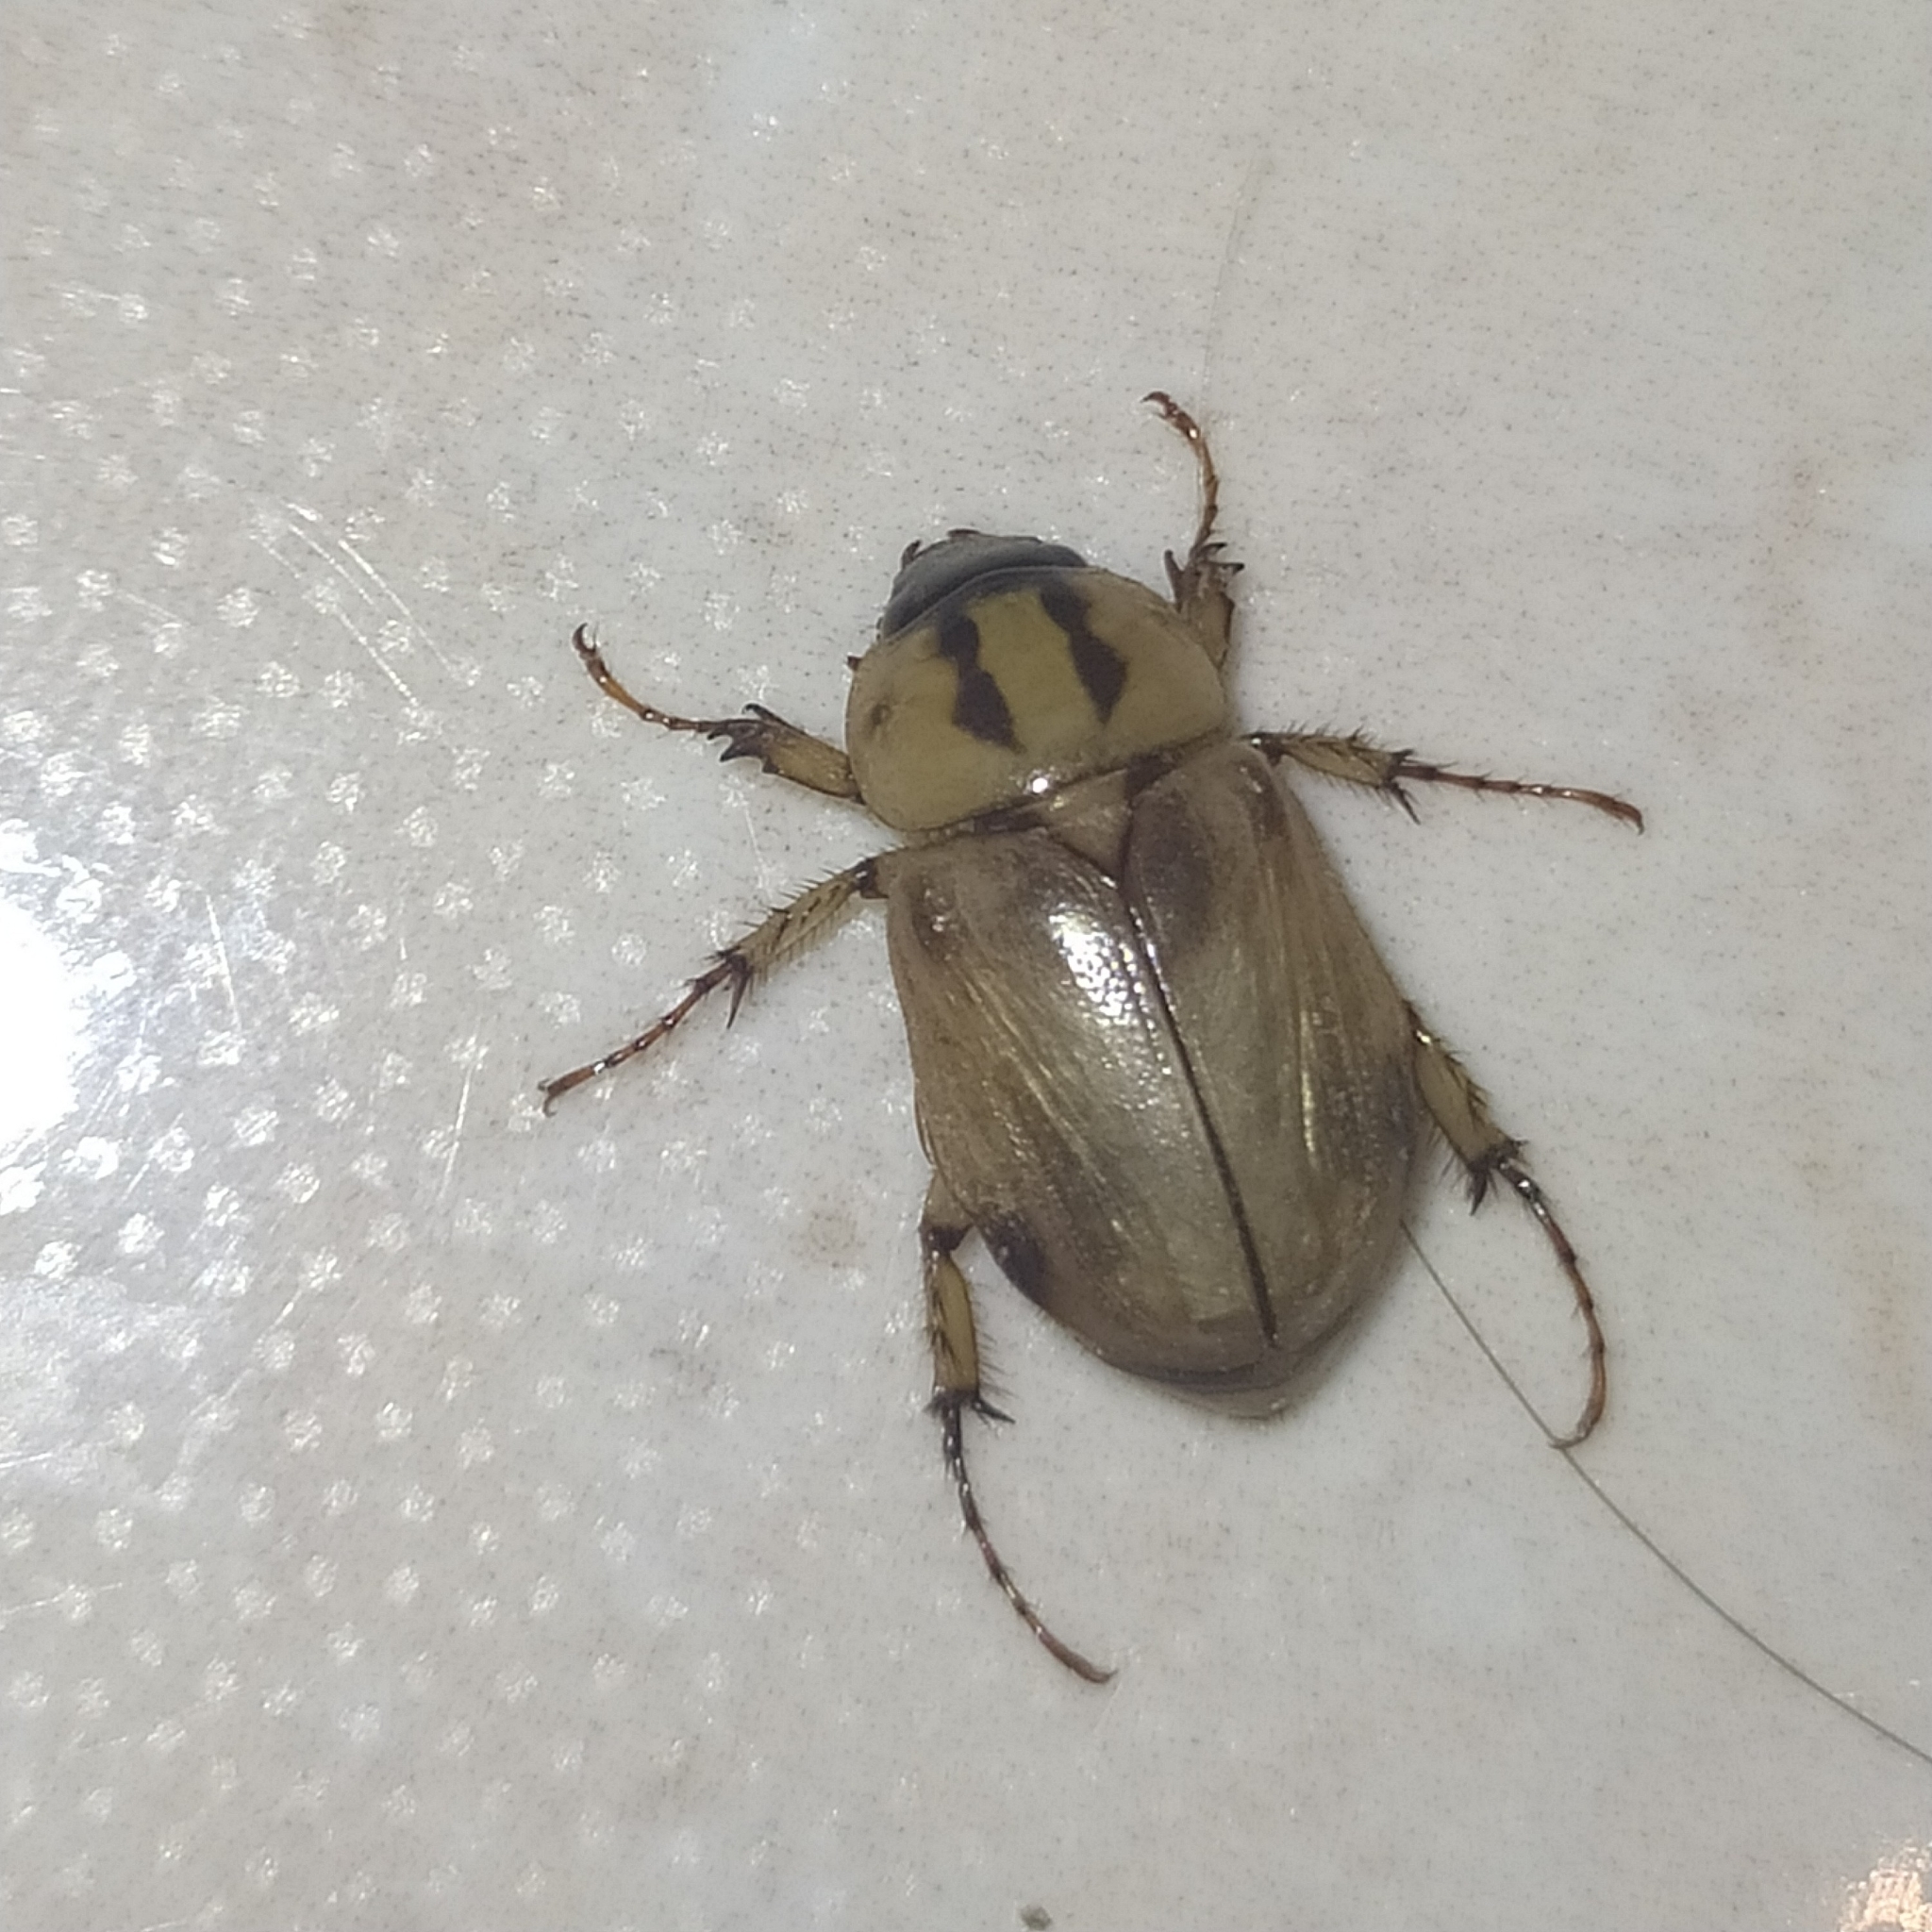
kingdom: Animalia
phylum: Arthropoda
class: Insecta
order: Coleoptera
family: Scarabaeidae
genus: Cyclocephala
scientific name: Cyclocephala amazona
